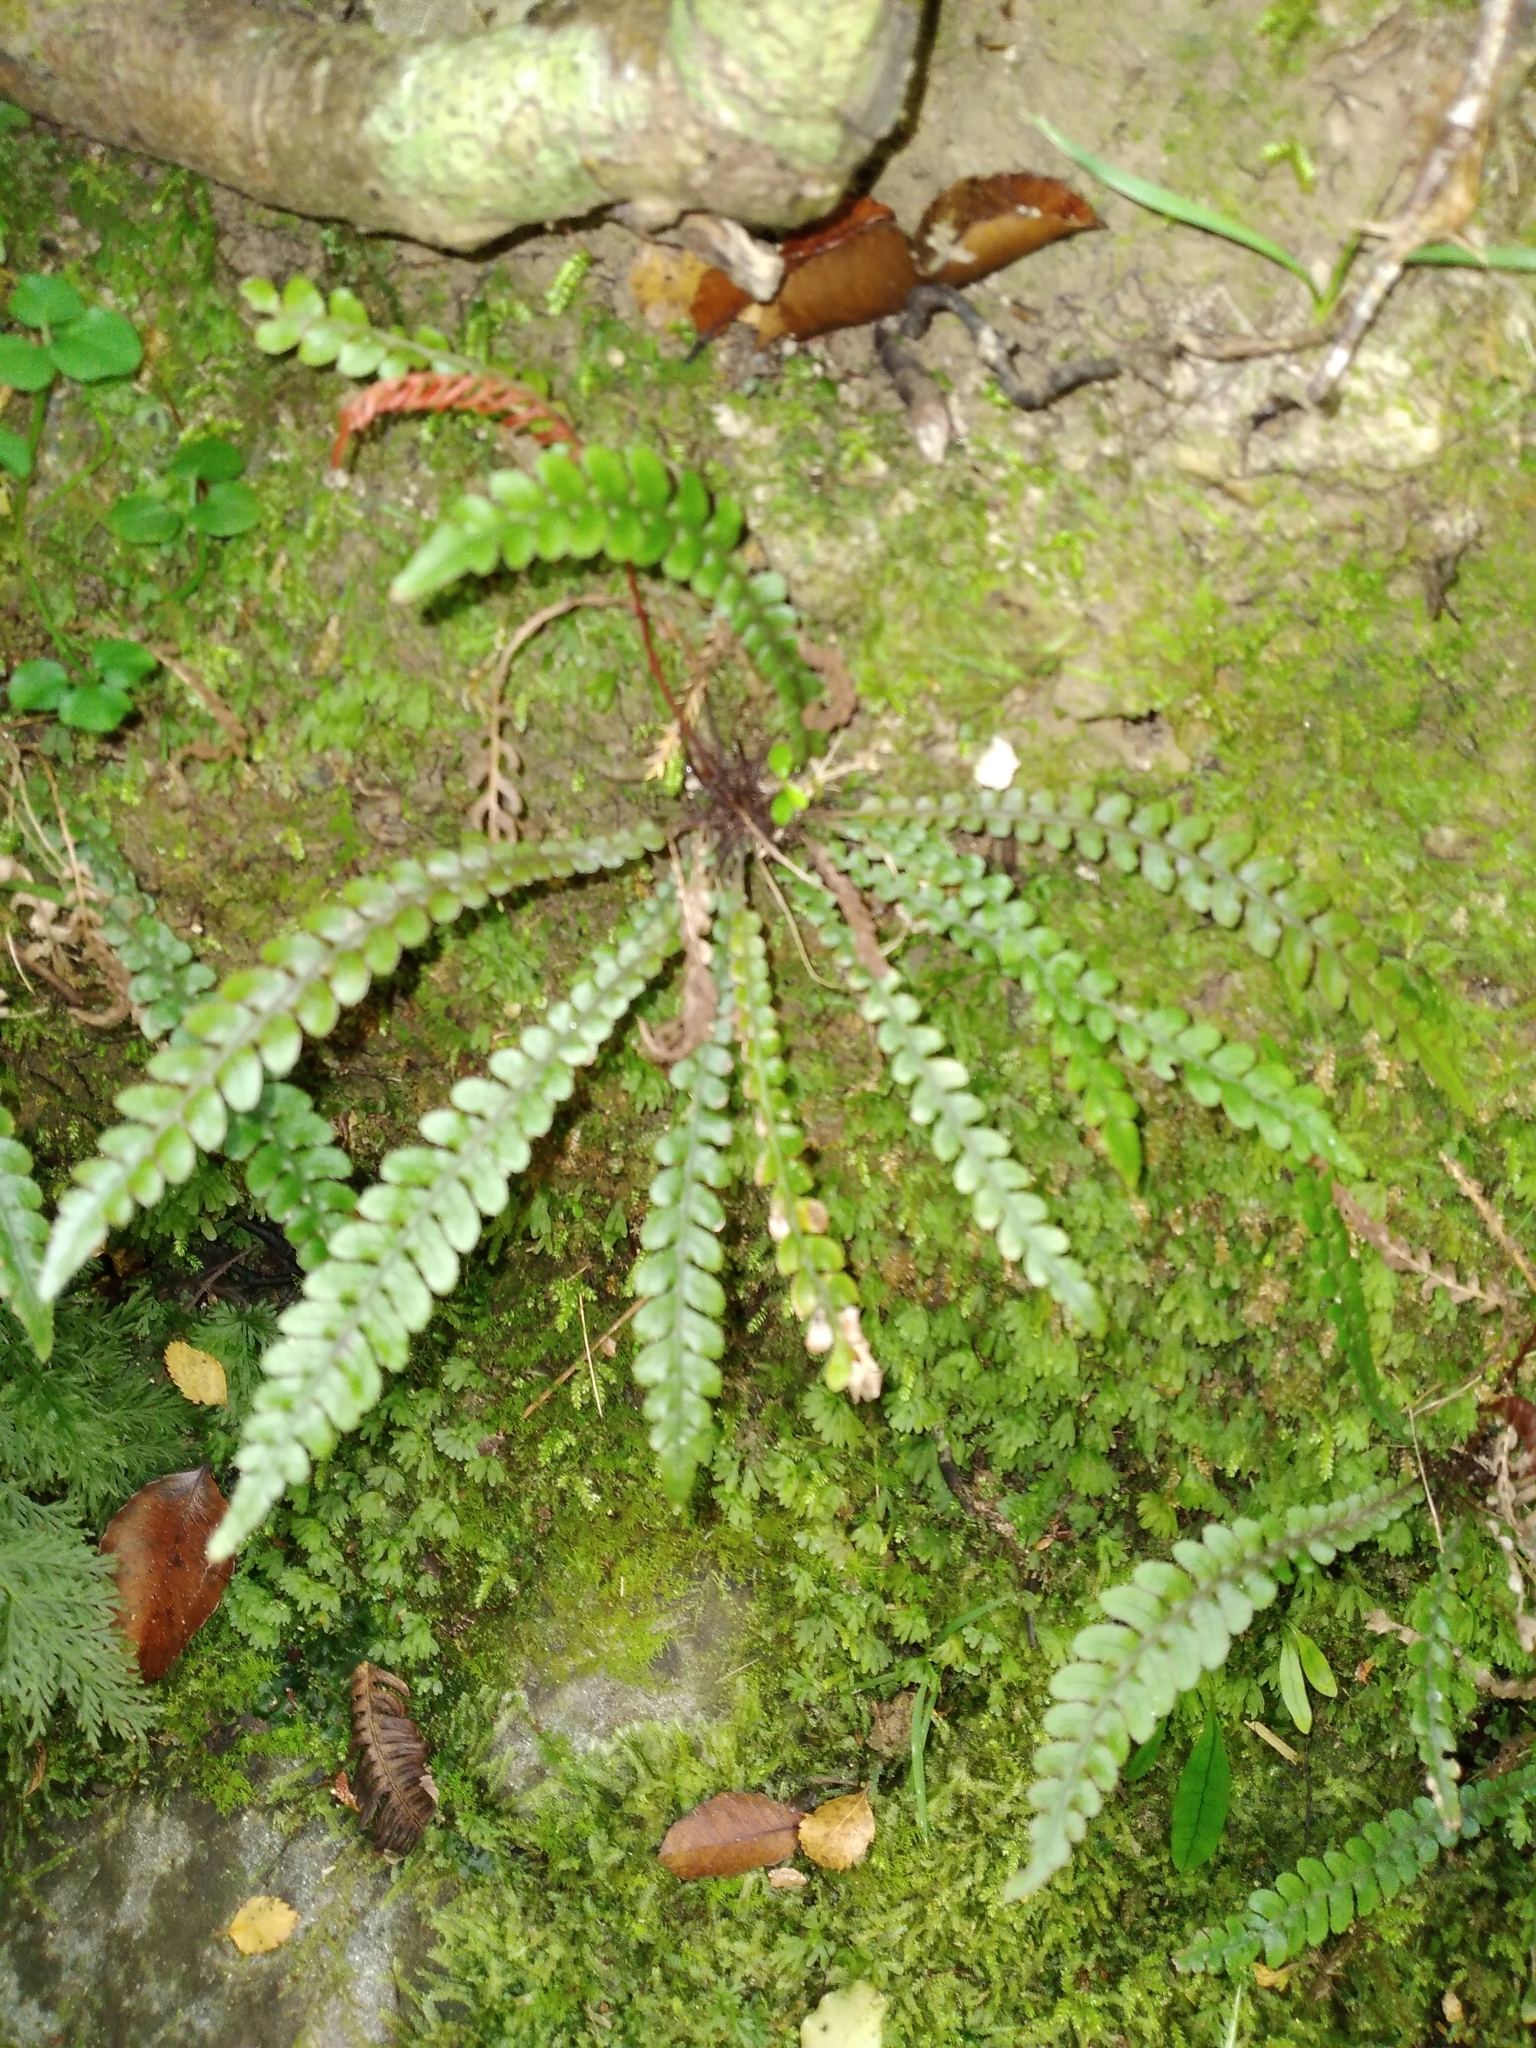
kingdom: Plantae
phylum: Tracheophyta
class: Polypodiopsida
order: Polypodiales
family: Blechnaceae
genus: Austroblechnum
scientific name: Austroblechnum membranaceum
